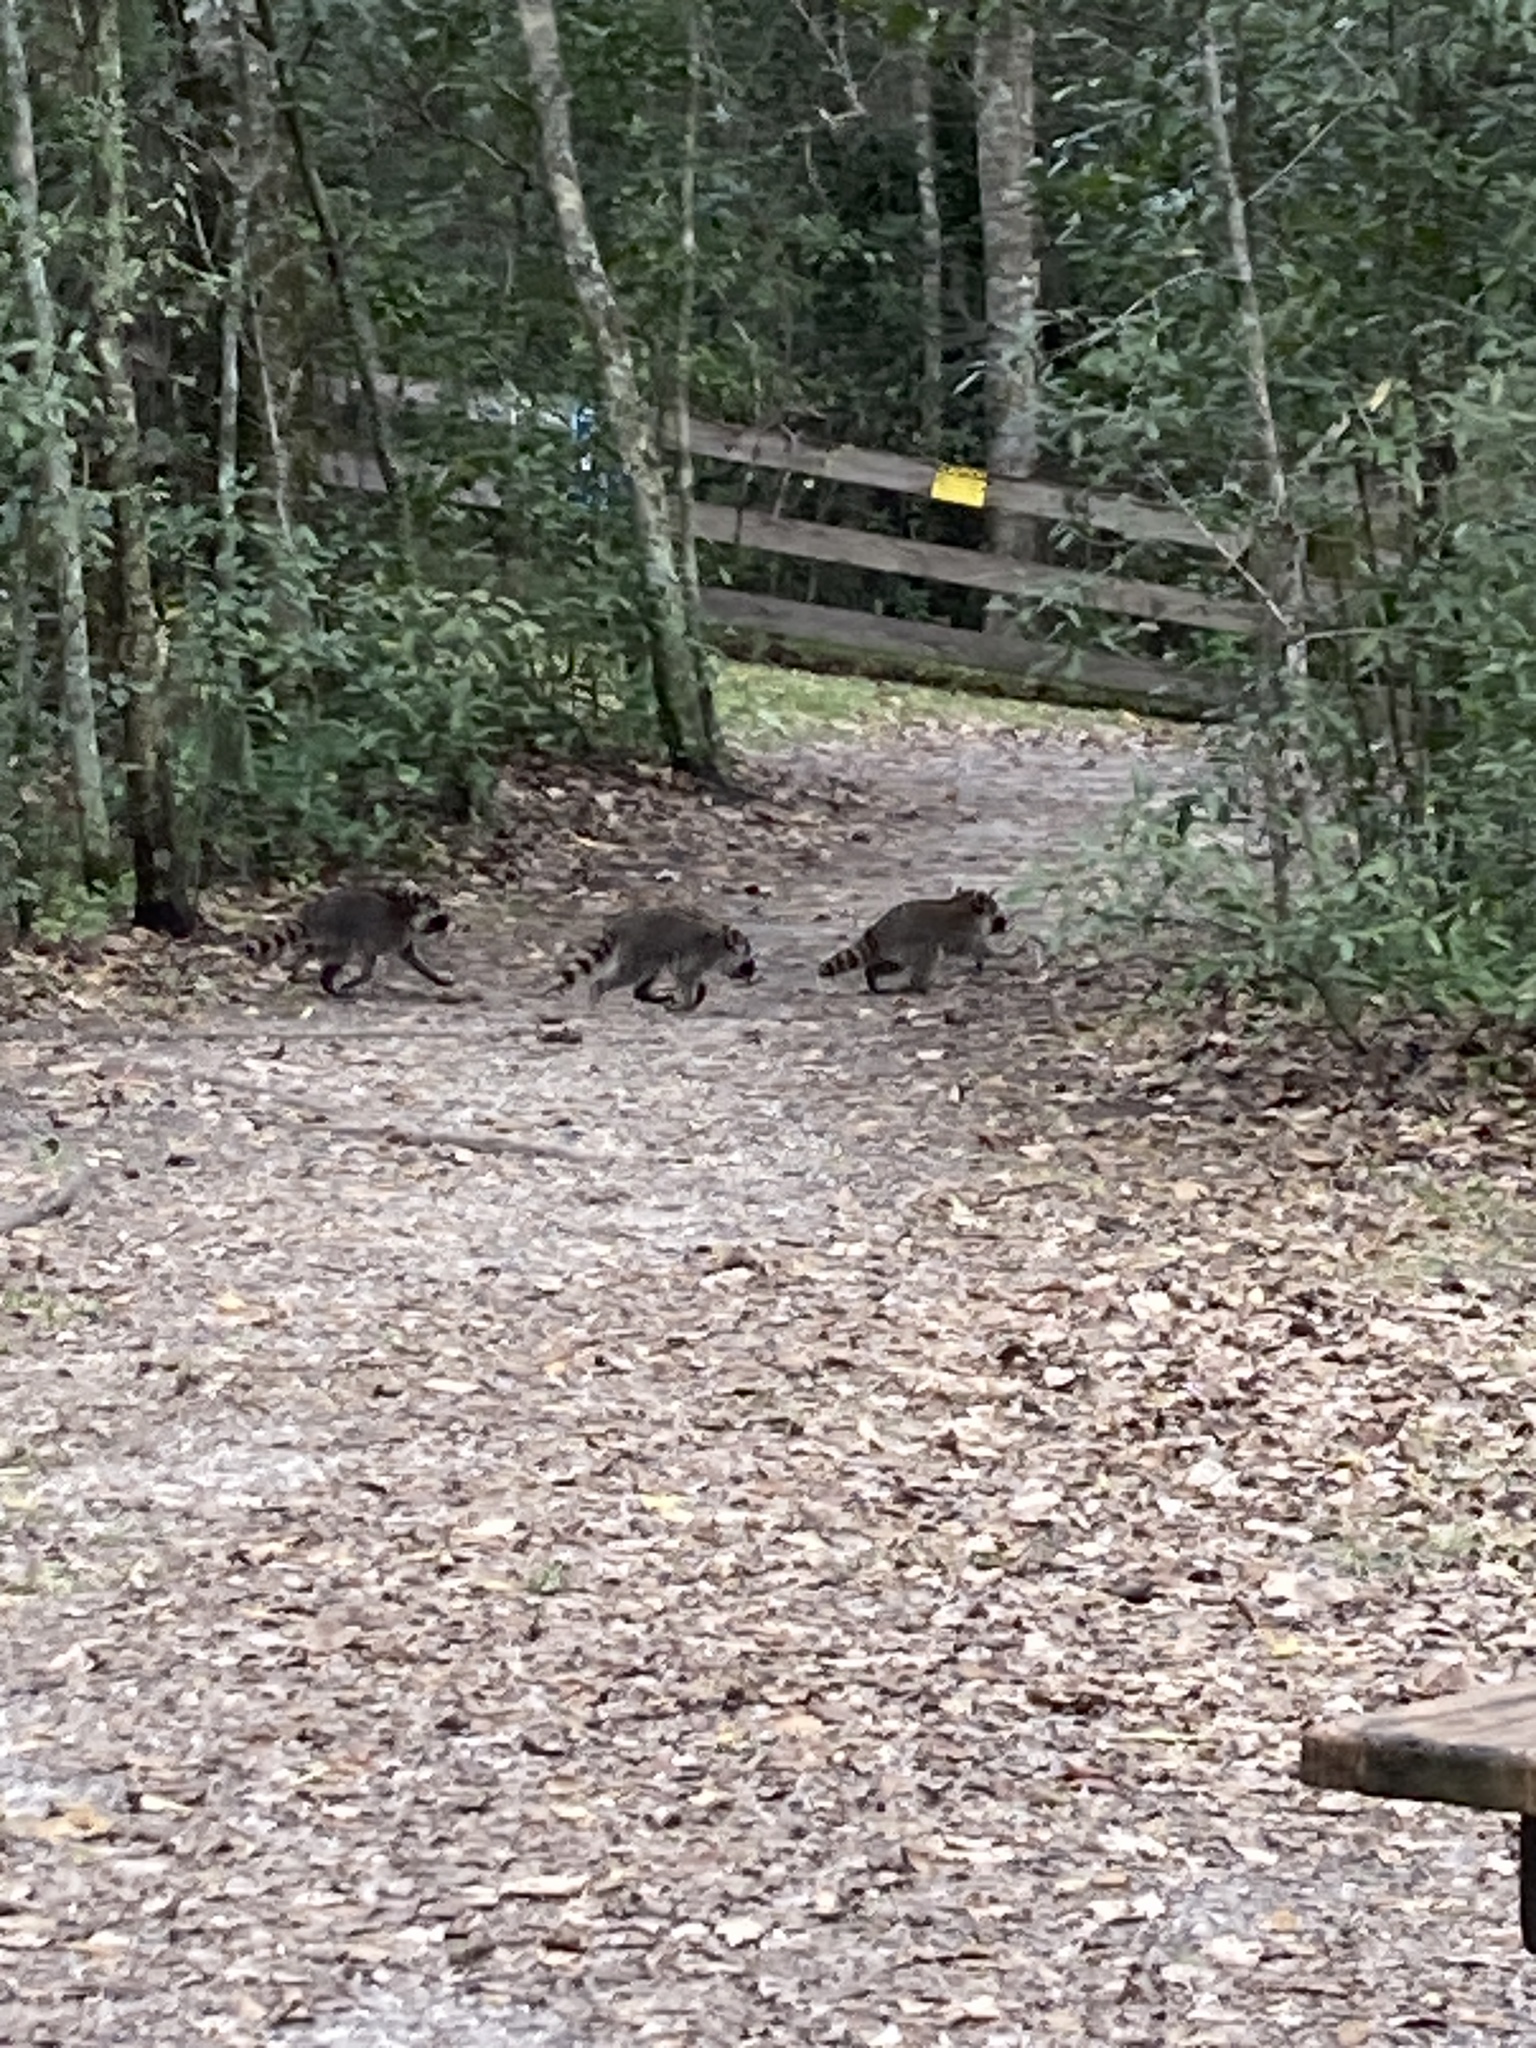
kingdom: Animalia
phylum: Chordata
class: Mammalia
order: Carnivora
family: Procyonidae
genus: Procyon
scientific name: Procyon lotor
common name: Raccoon
